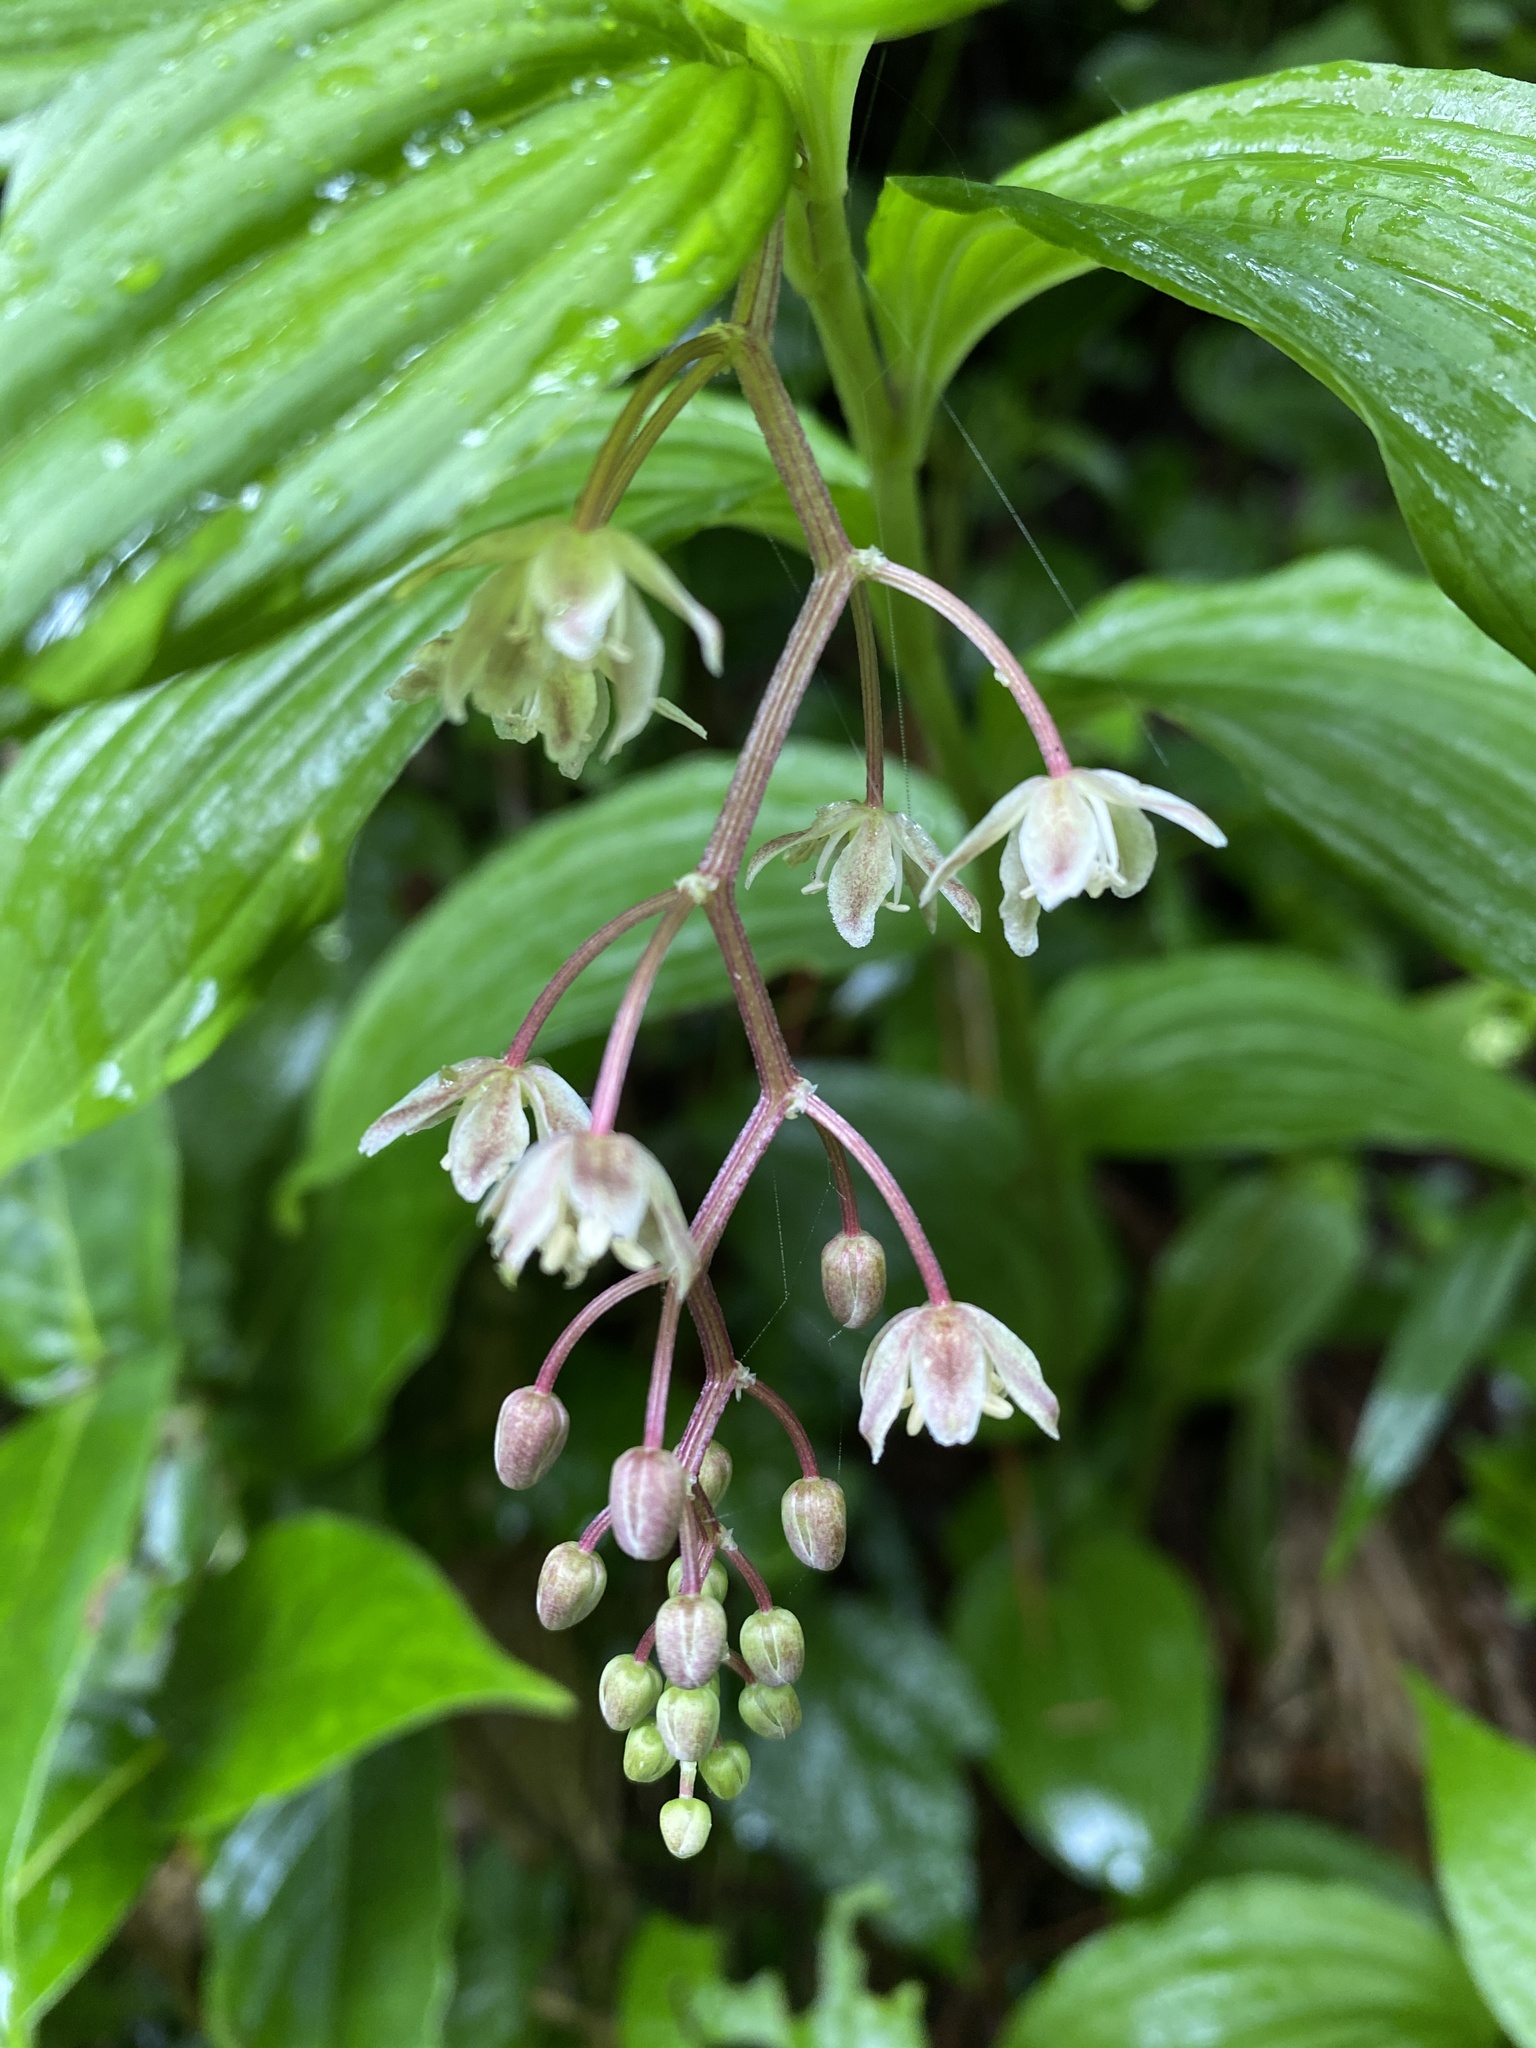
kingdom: Plantae
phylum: Tracheophyta
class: Liliopsida
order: Asparagales
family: Asparagaceae
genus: Maianthemum
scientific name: Maianthemum flexuosum
